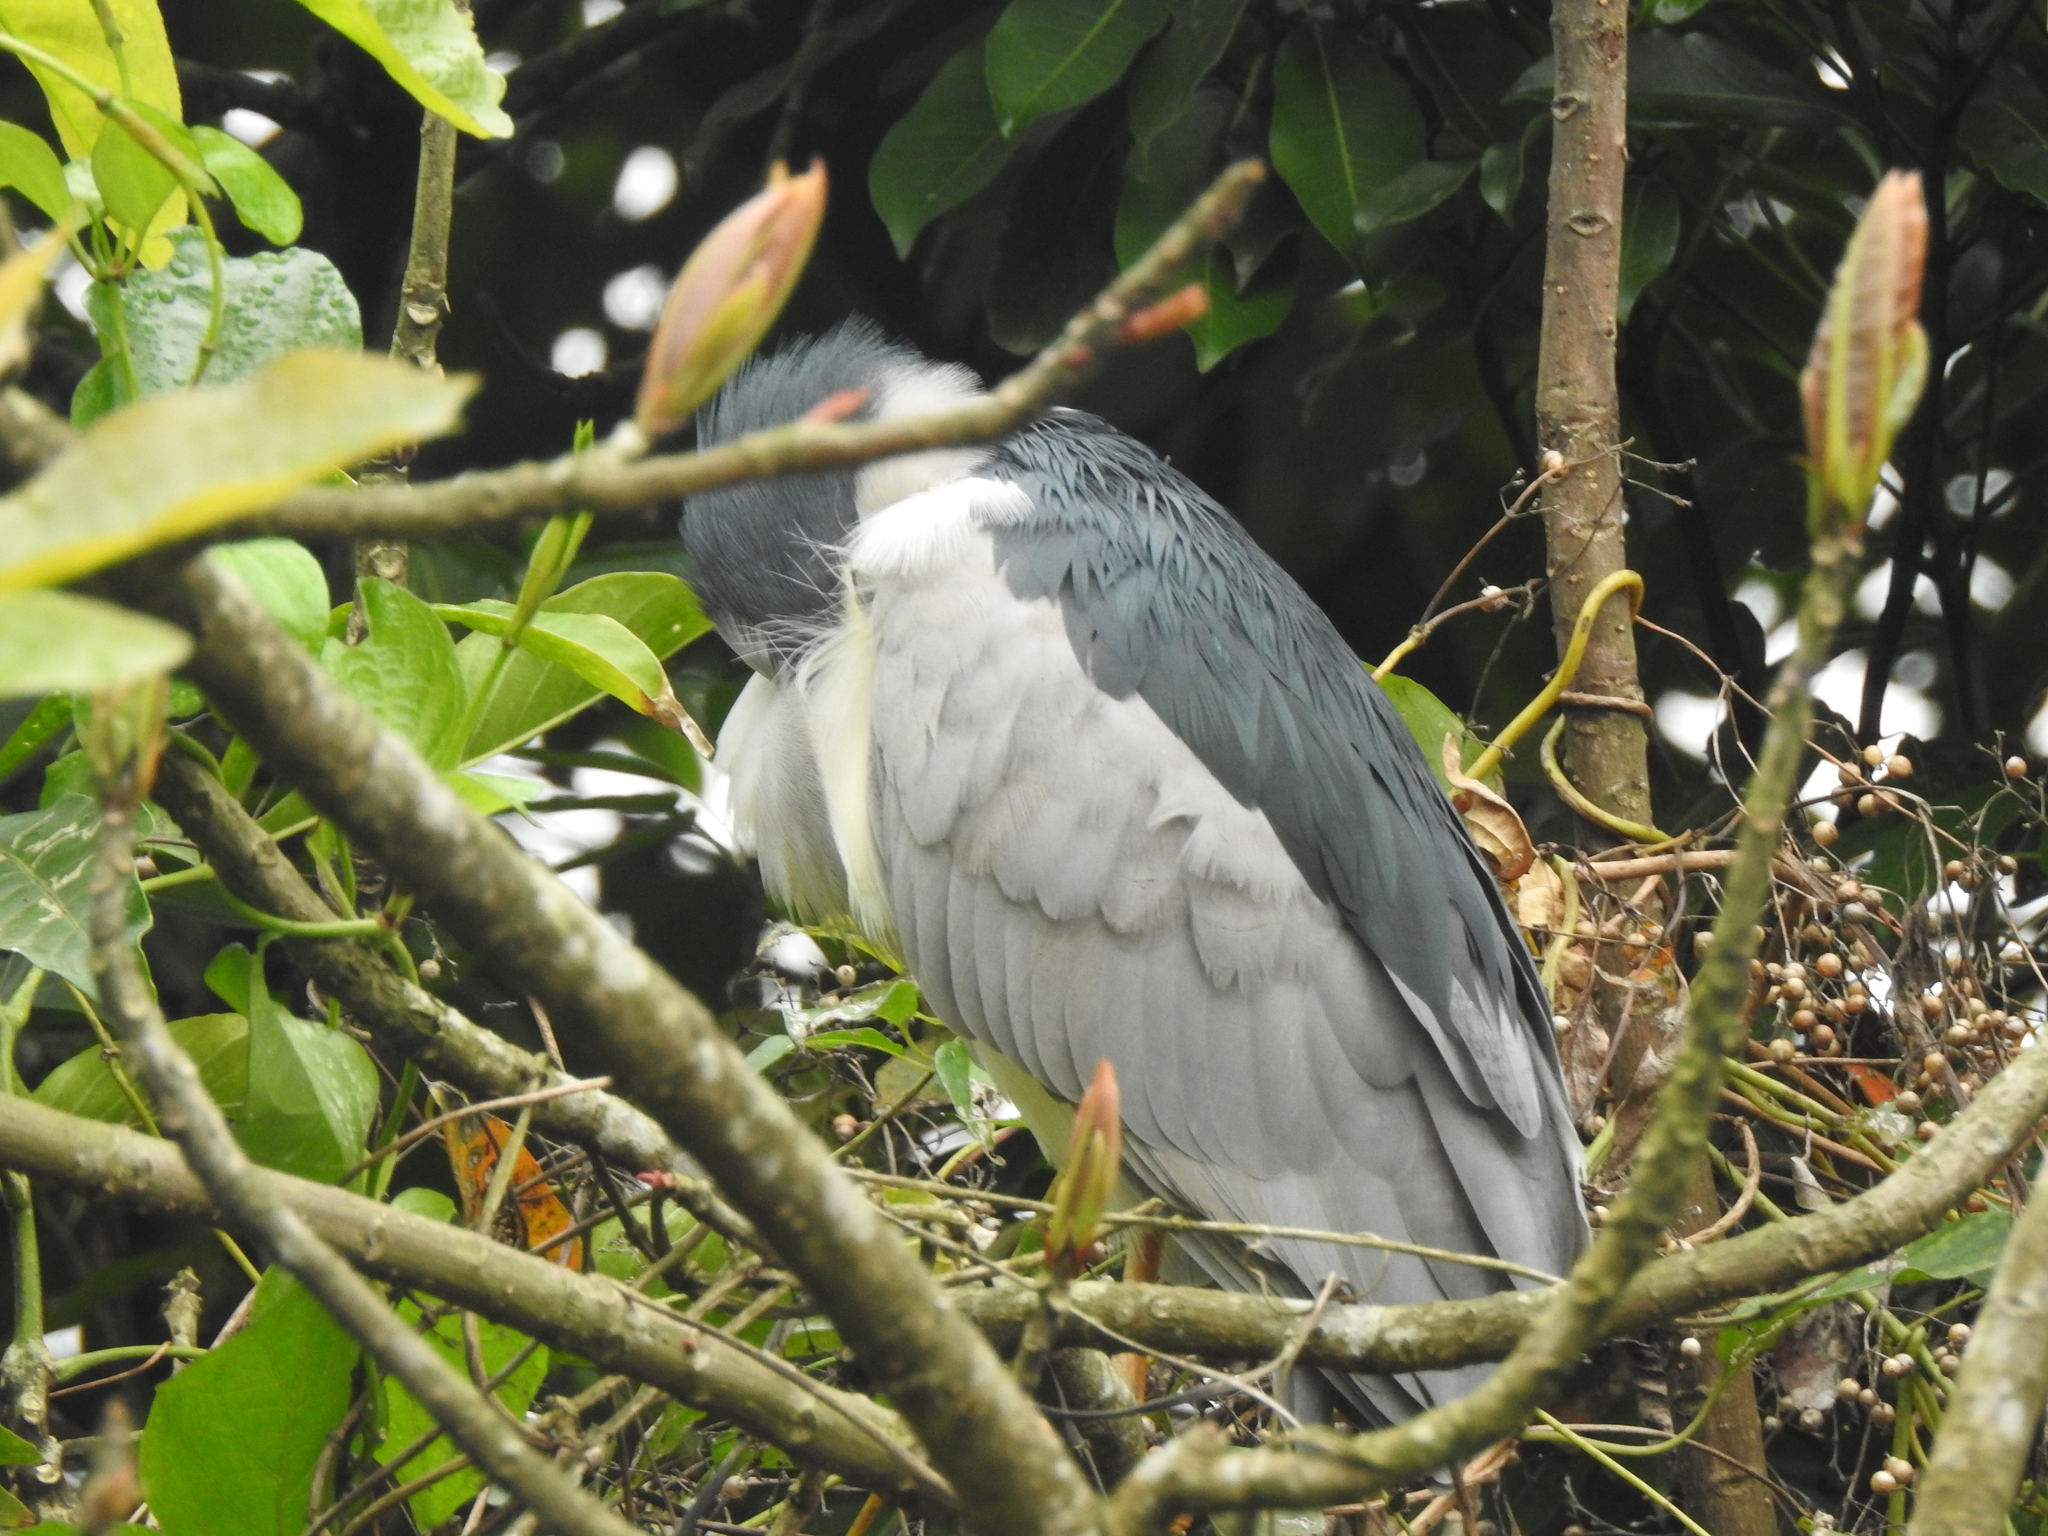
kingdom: Animalia
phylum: Chordata
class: Aves
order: Pelecaniformes
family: Ardeidae
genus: Nycticorax
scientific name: Nycticorax nycticorax
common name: Black-crowned night heron
